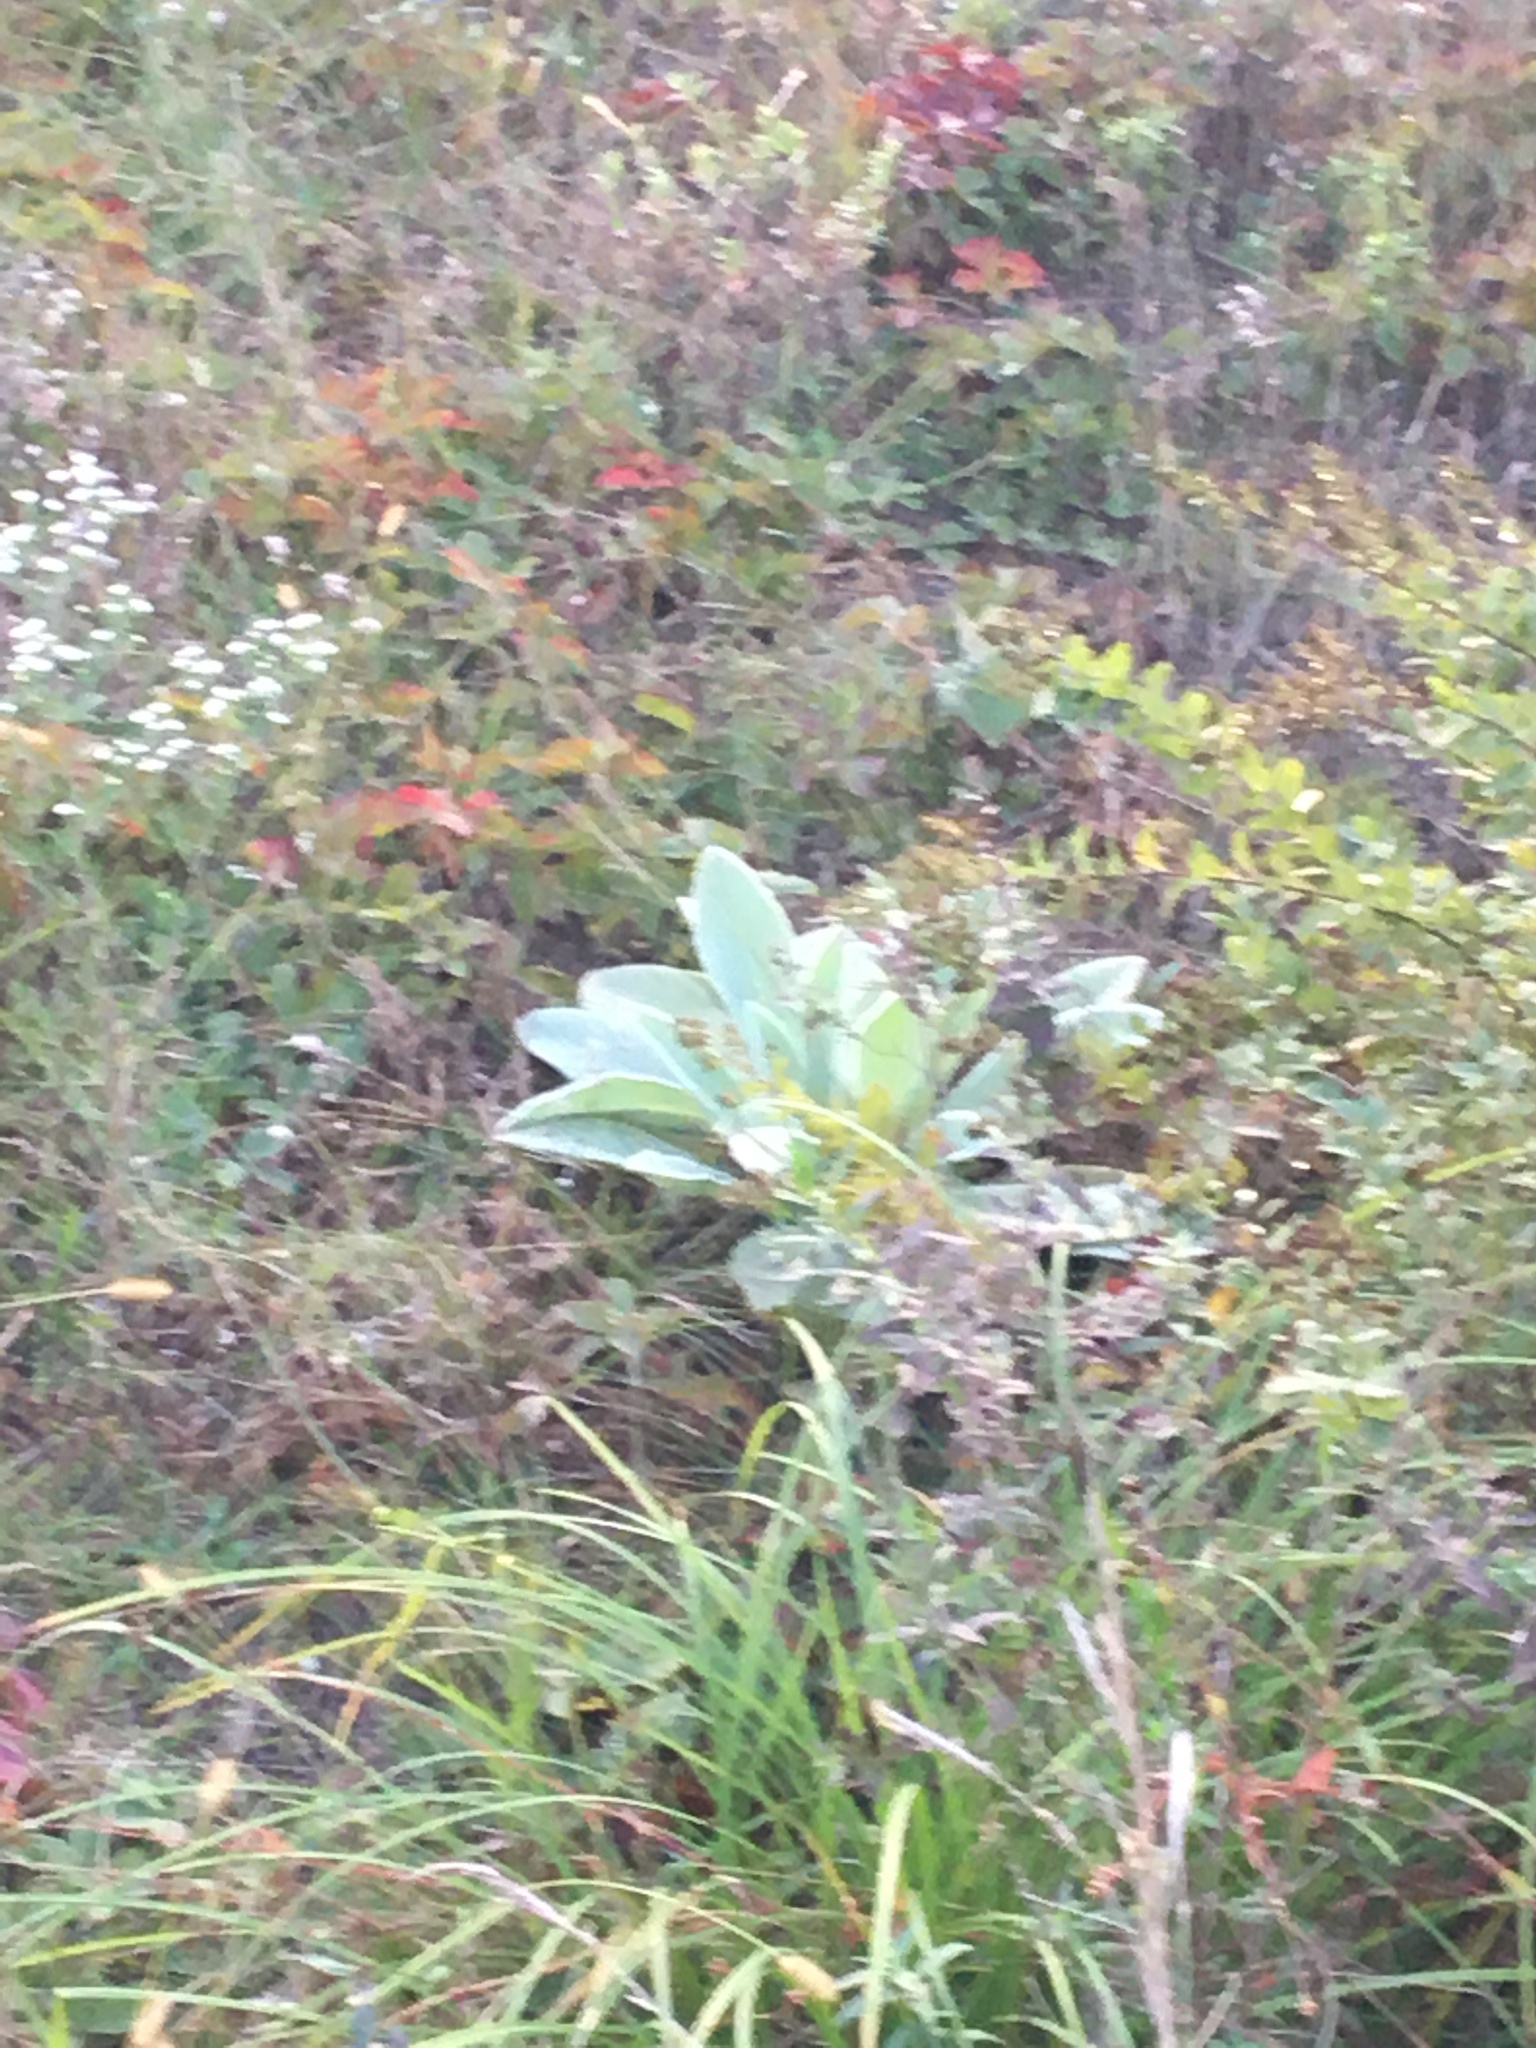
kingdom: Plantae
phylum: Tracheophyta
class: Magnoliopsida
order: Lamiales
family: Scrophulariaceae
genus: Verbascum
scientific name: Verbascum thapsus
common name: Common mullein
